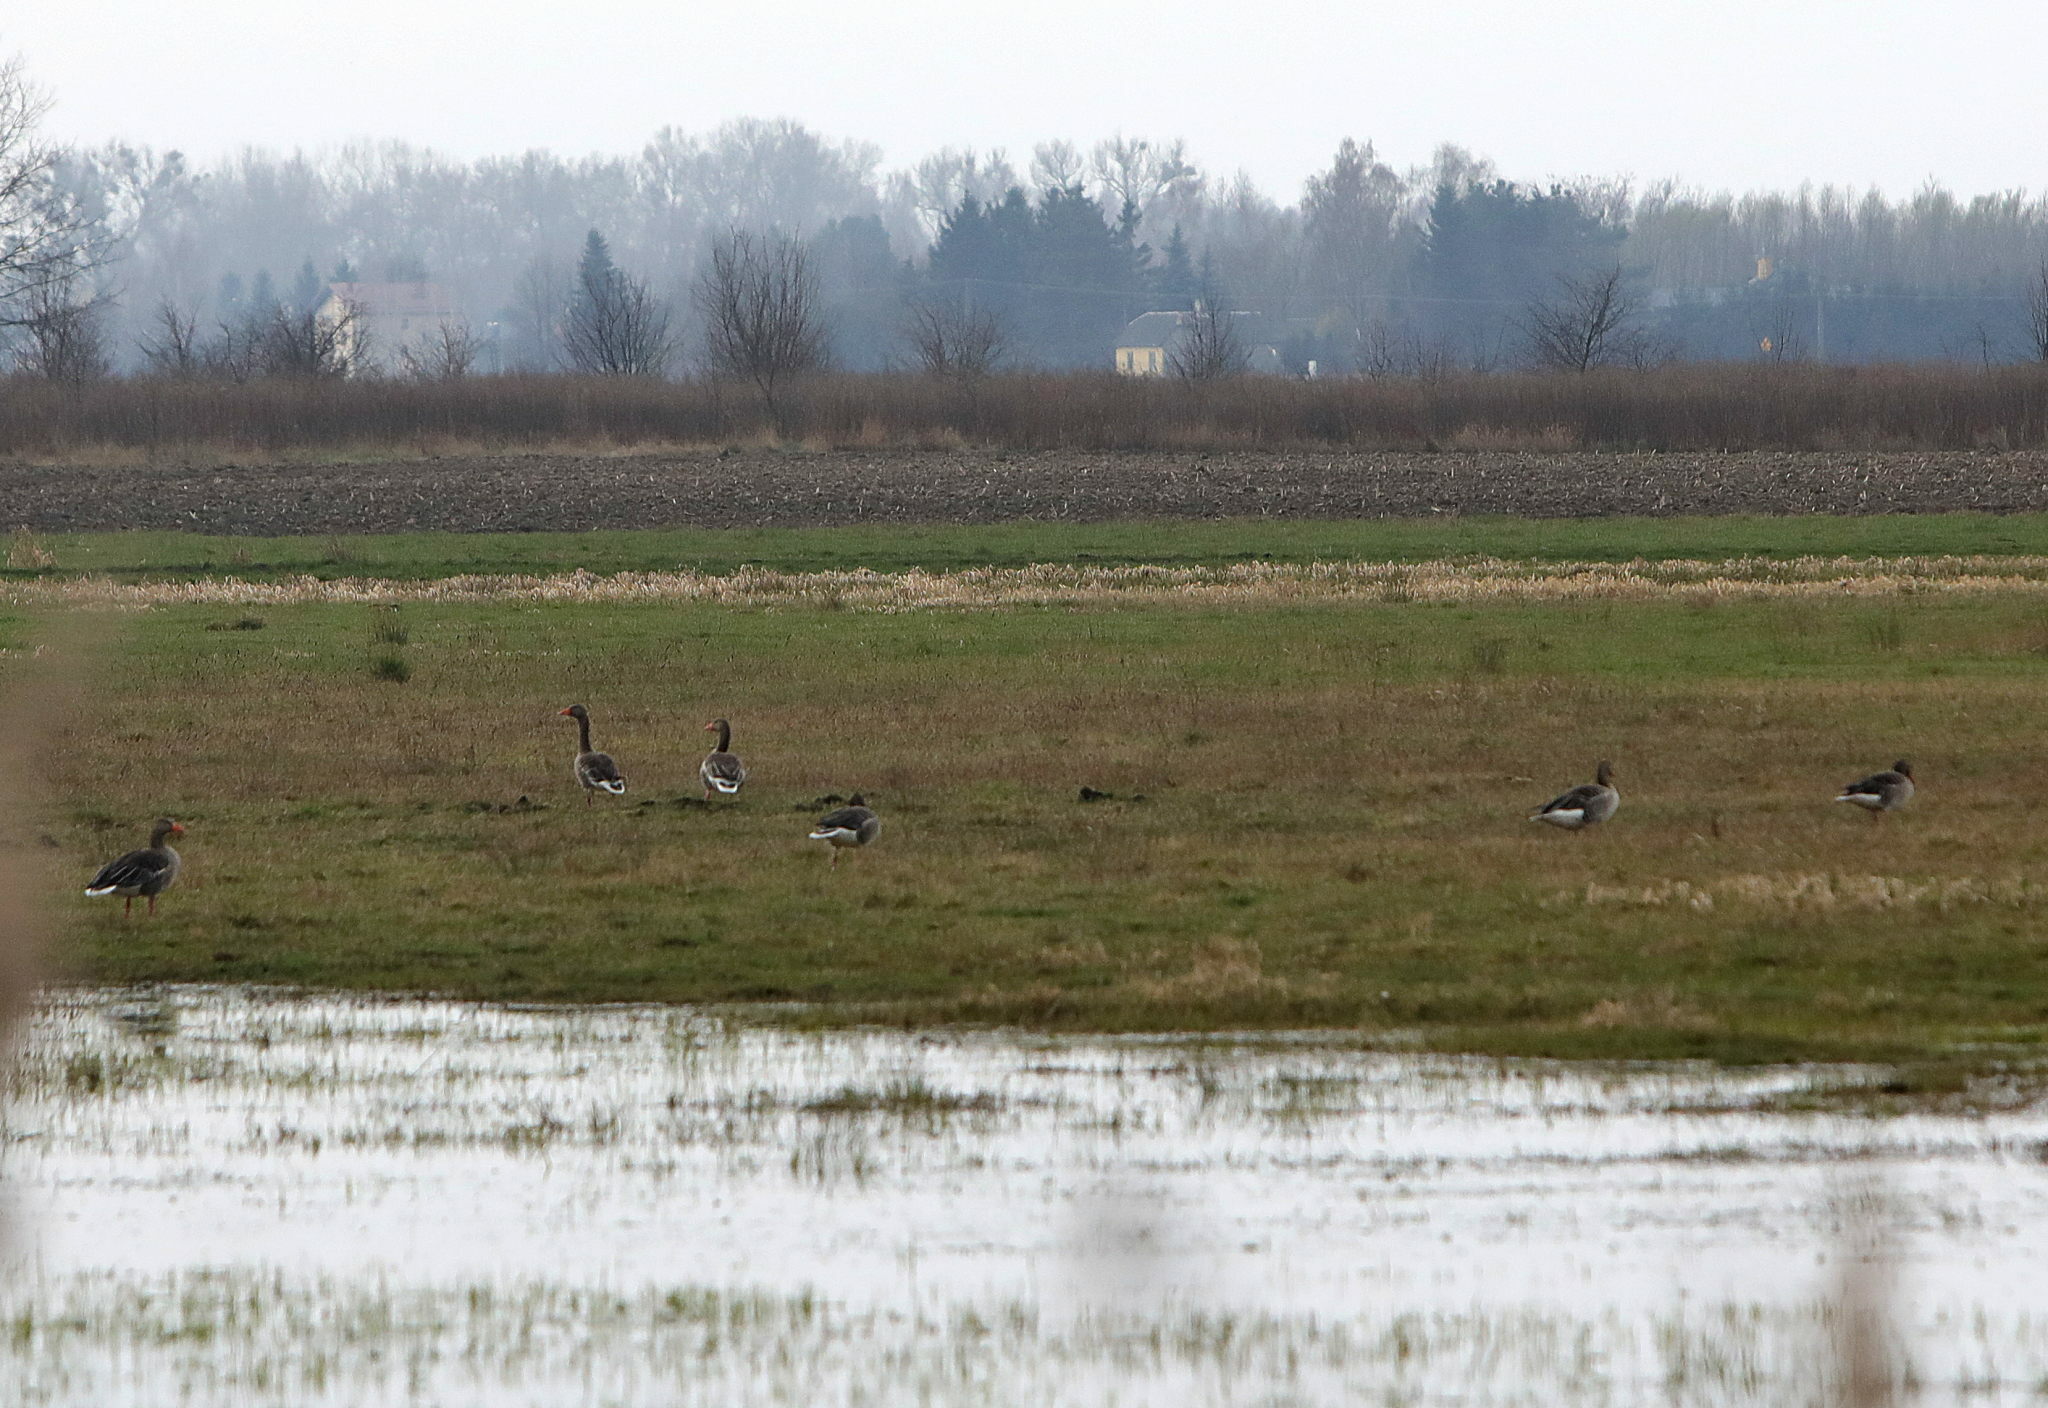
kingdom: Animalia
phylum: Chordata
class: Aves
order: Anseriformes
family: Anatidae
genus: Anser
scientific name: Anser anser
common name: Greylag goose
